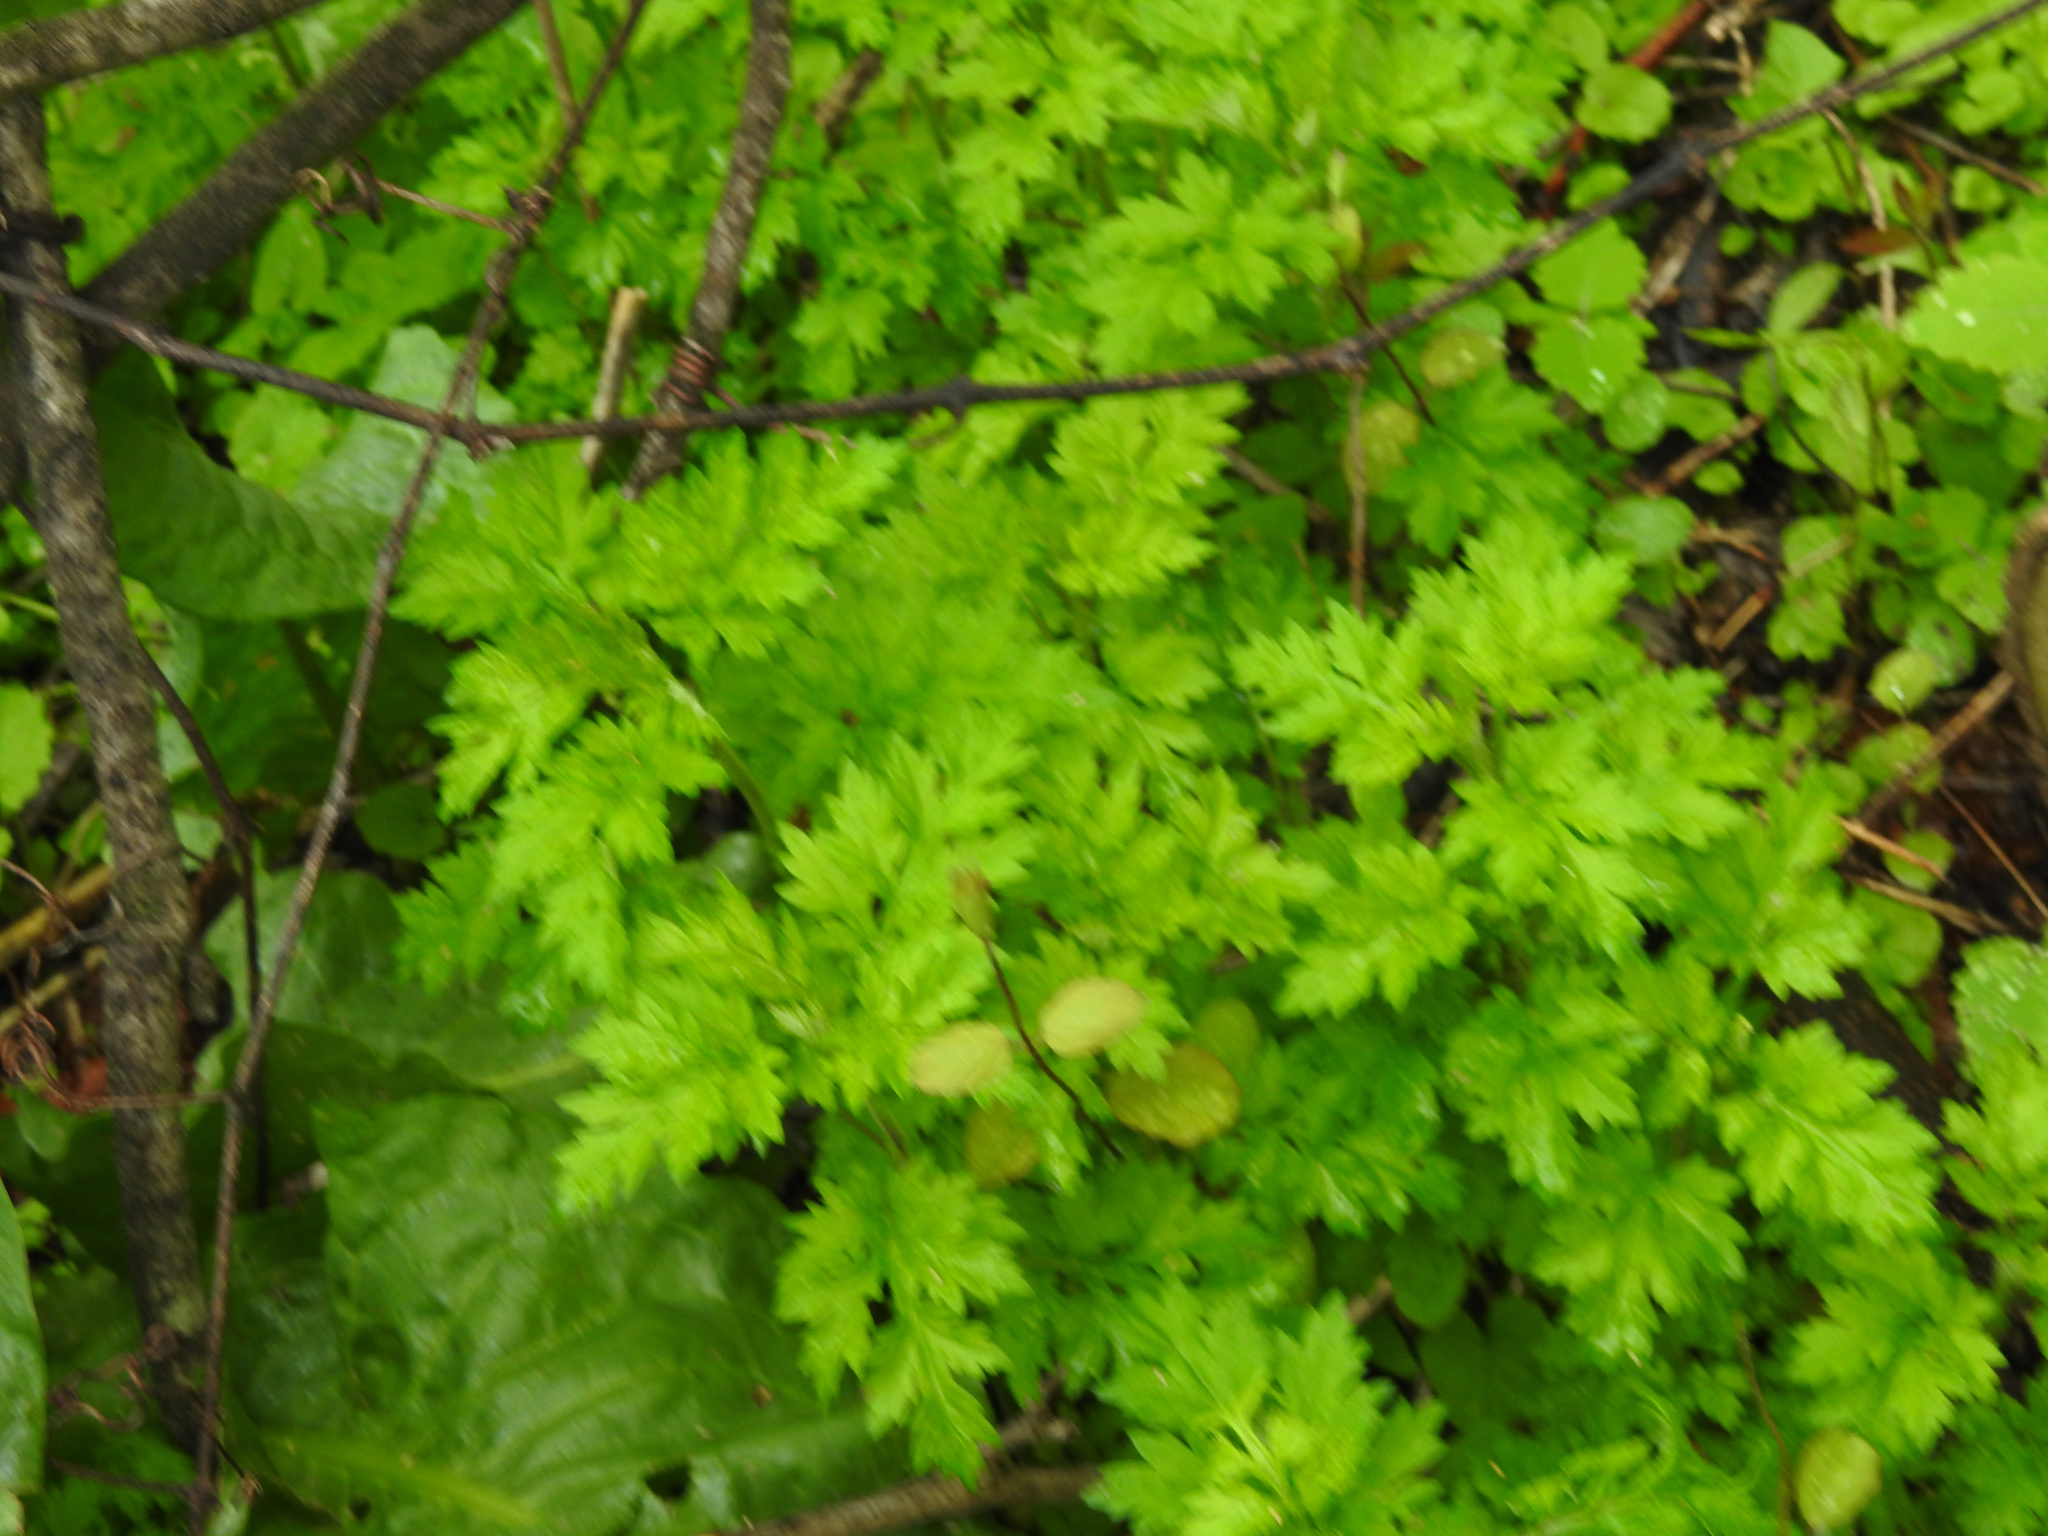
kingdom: Plantae
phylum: Tracheophyta
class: Magnoliopsida
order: Asterales
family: Asteraceae
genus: Artemisia
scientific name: Artemisia vulgaris
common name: Mugwort
